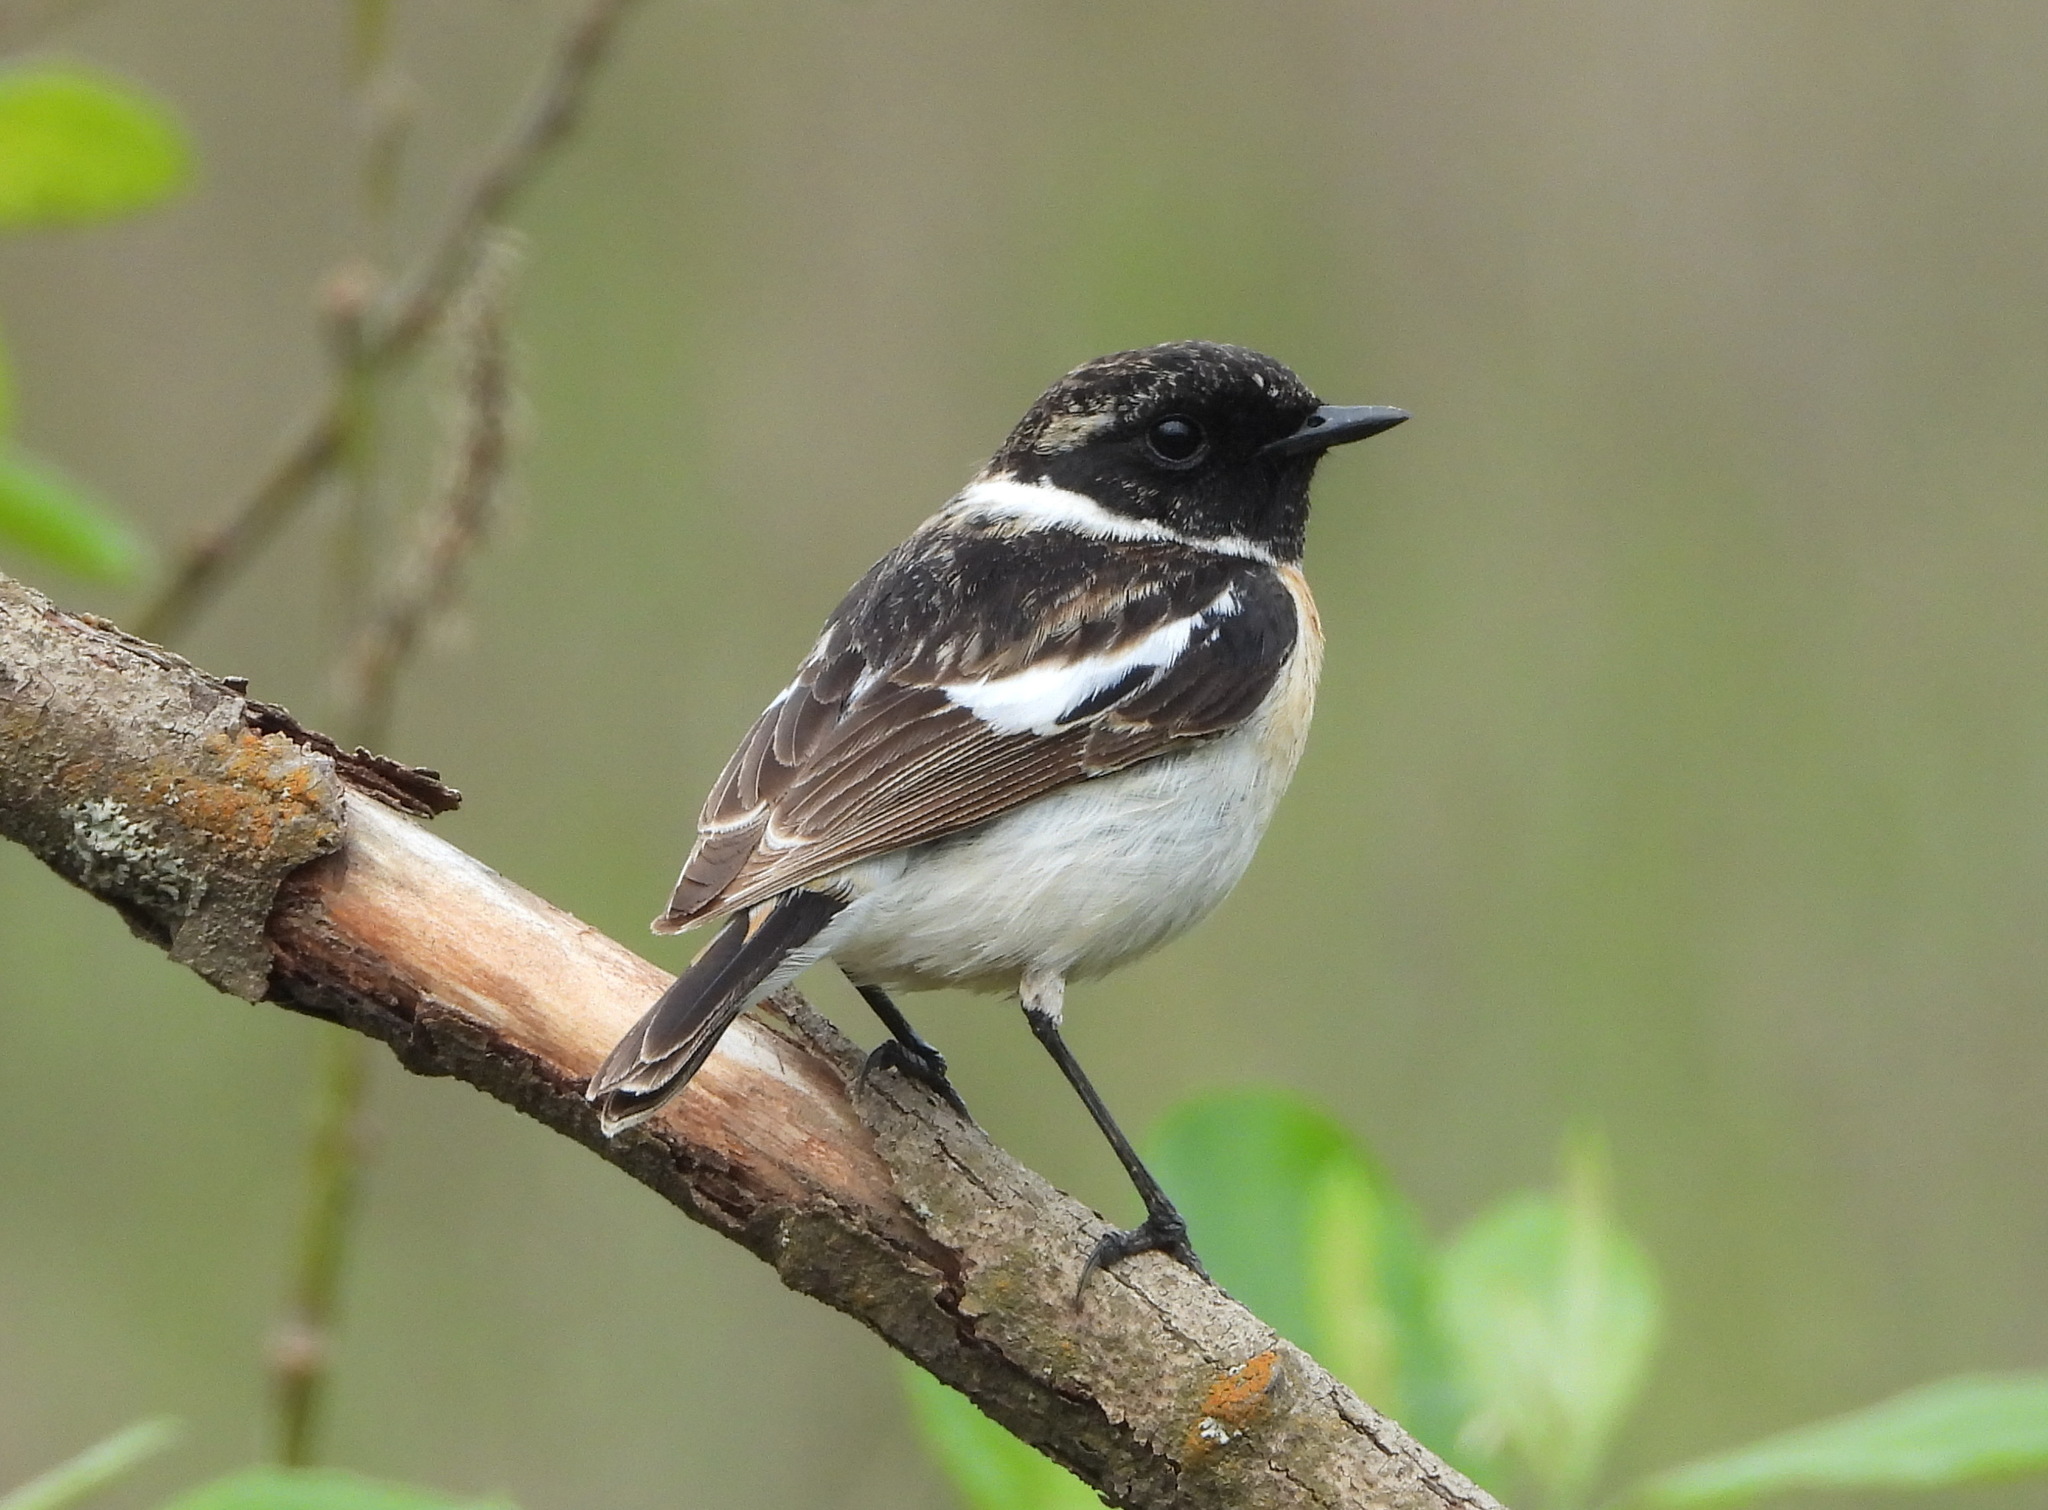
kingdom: Animalia
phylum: Chordata
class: Aves
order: Passeriformes
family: Muscicapidae
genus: Saxicola
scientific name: Saxicola maurus
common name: Siberian stonechat
